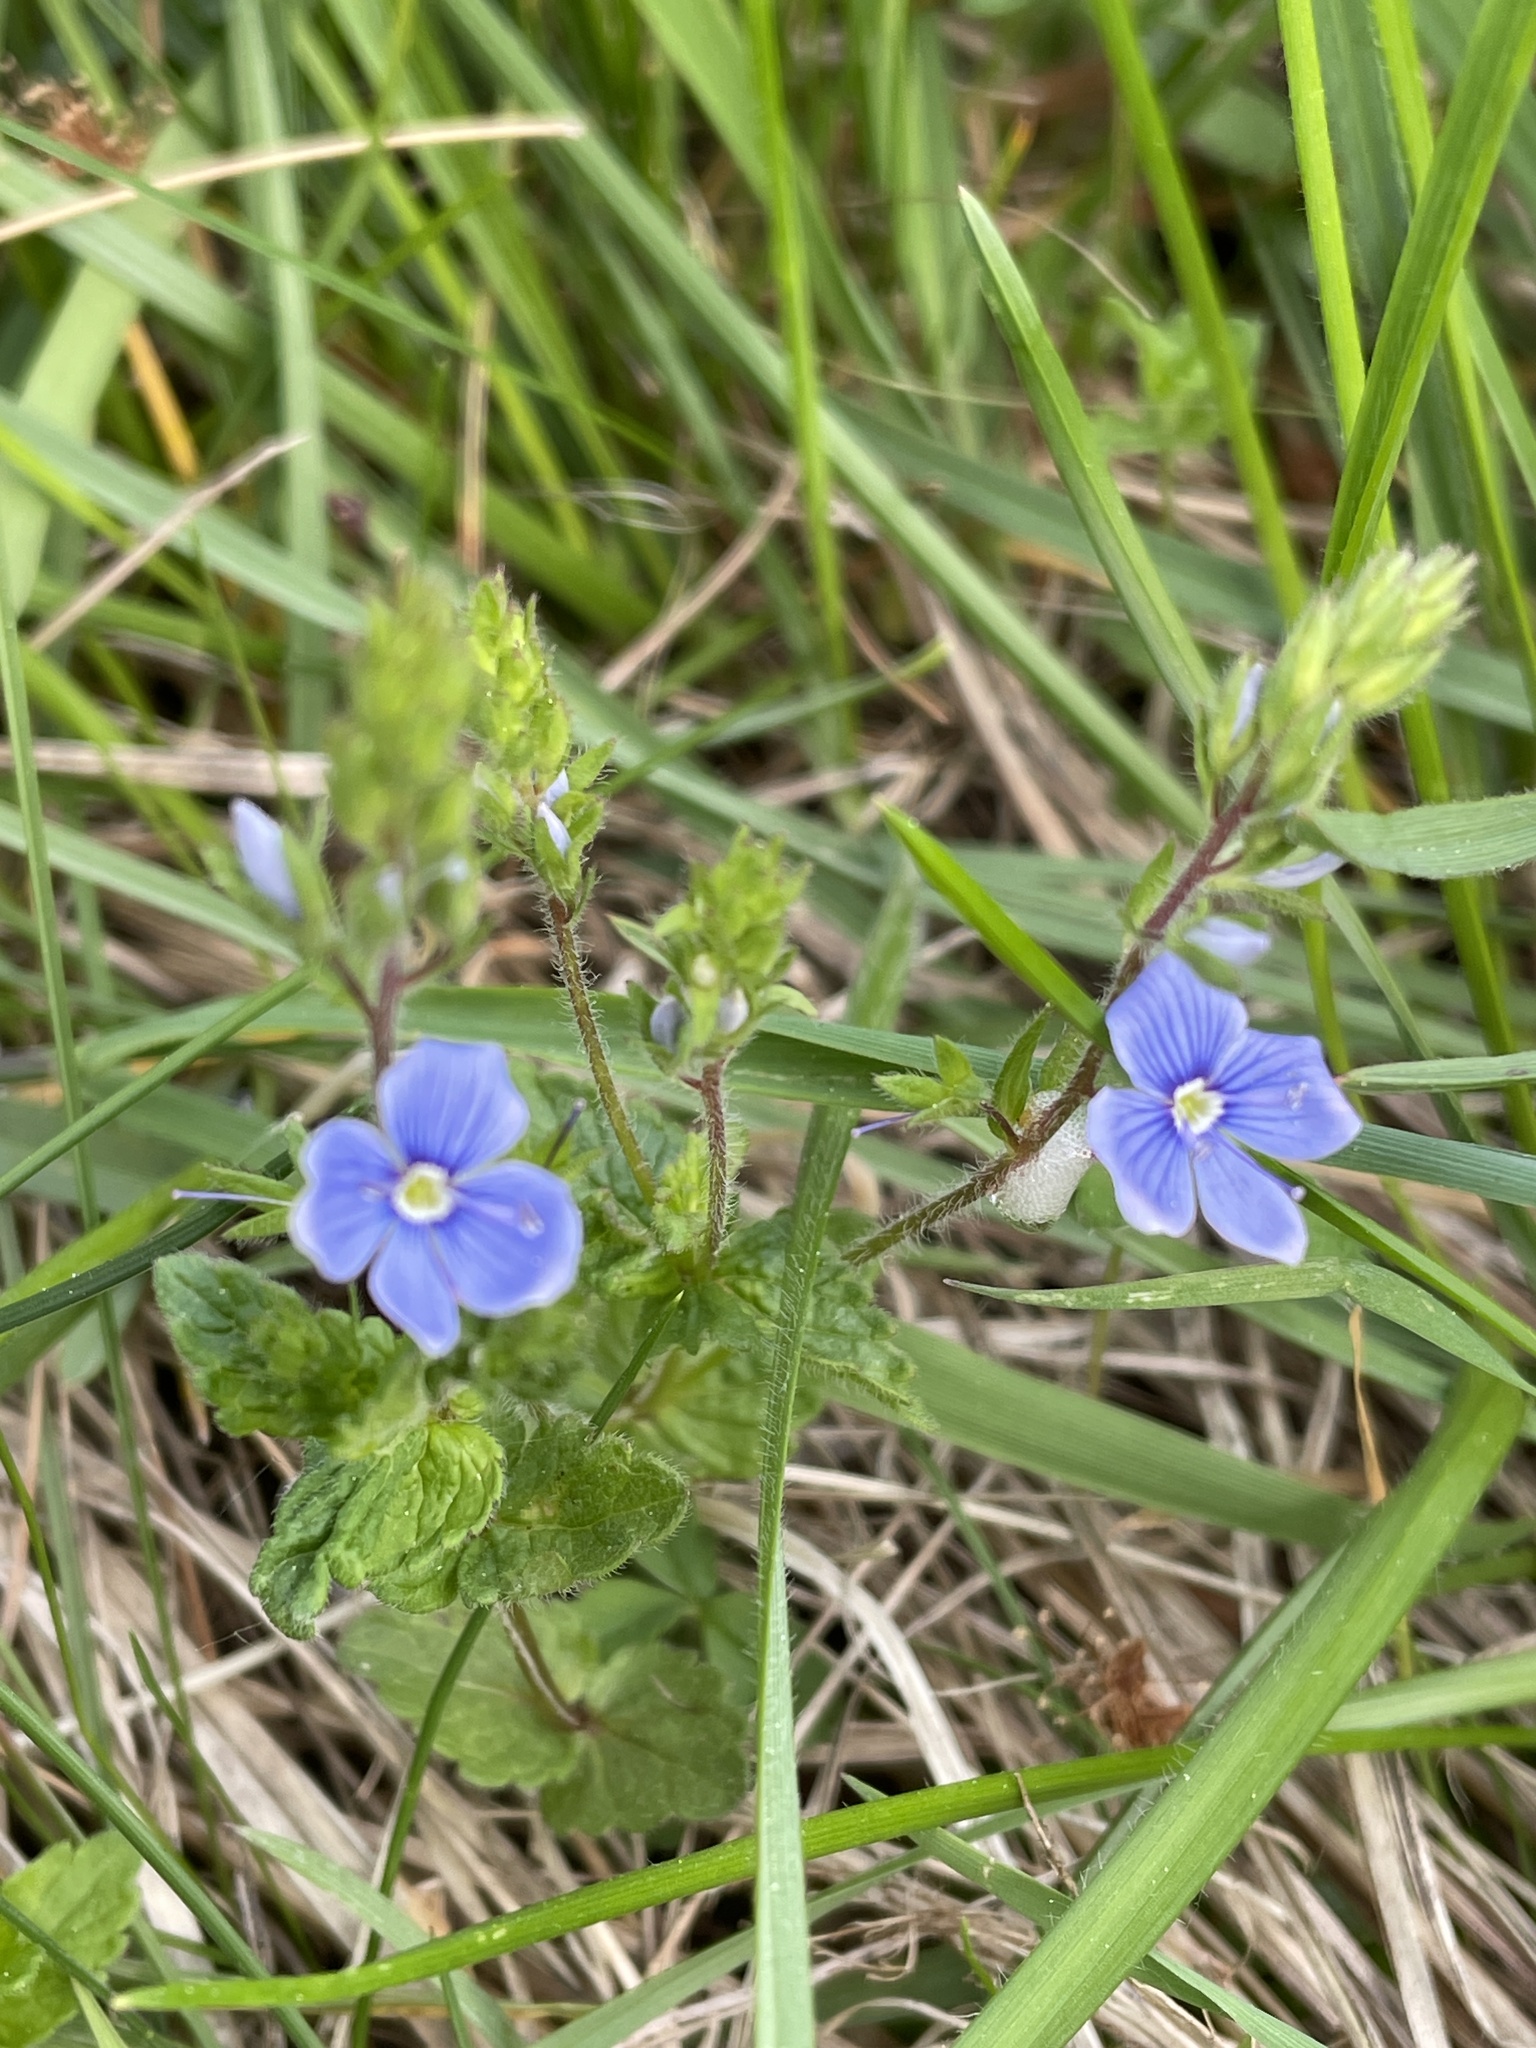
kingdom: Plantae
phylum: Tracheophyta
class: Magnoliopsida
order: Lamiales
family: Plantaginaceae
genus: Veronica
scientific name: Veronica chamaedrys
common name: Germander speedwell
